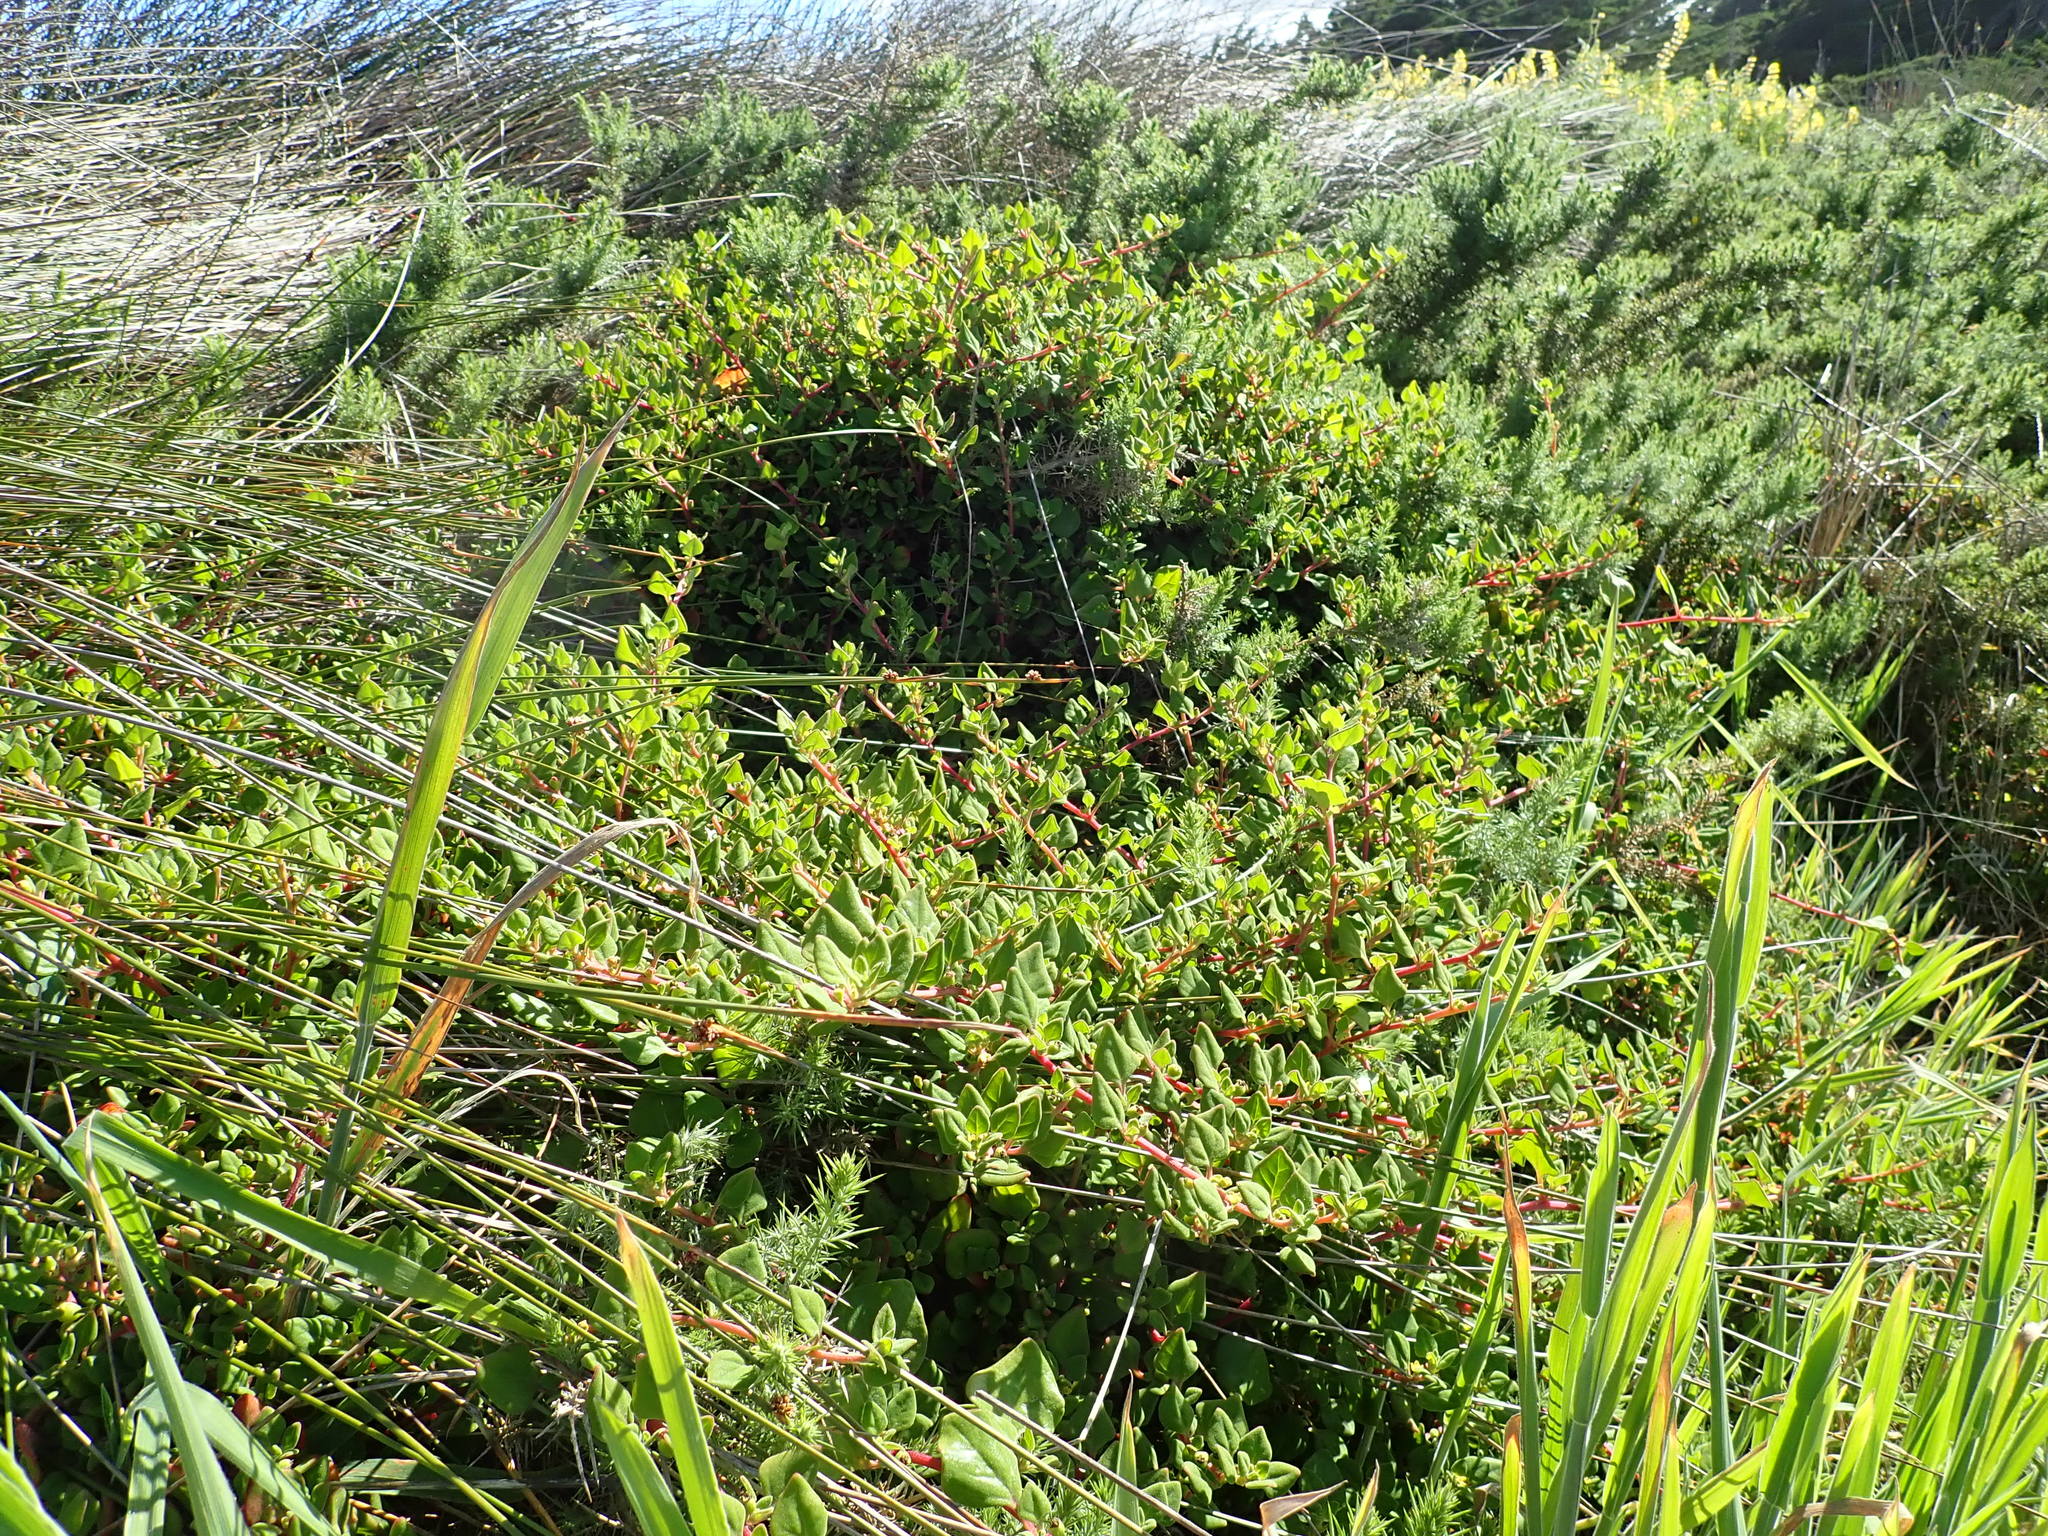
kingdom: Plantae
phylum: Tracheophyta
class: Magnoliopsida
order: Fabales
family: Fabaceae
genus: Ulex
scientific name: Ulex europaeus
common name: Common gorse
